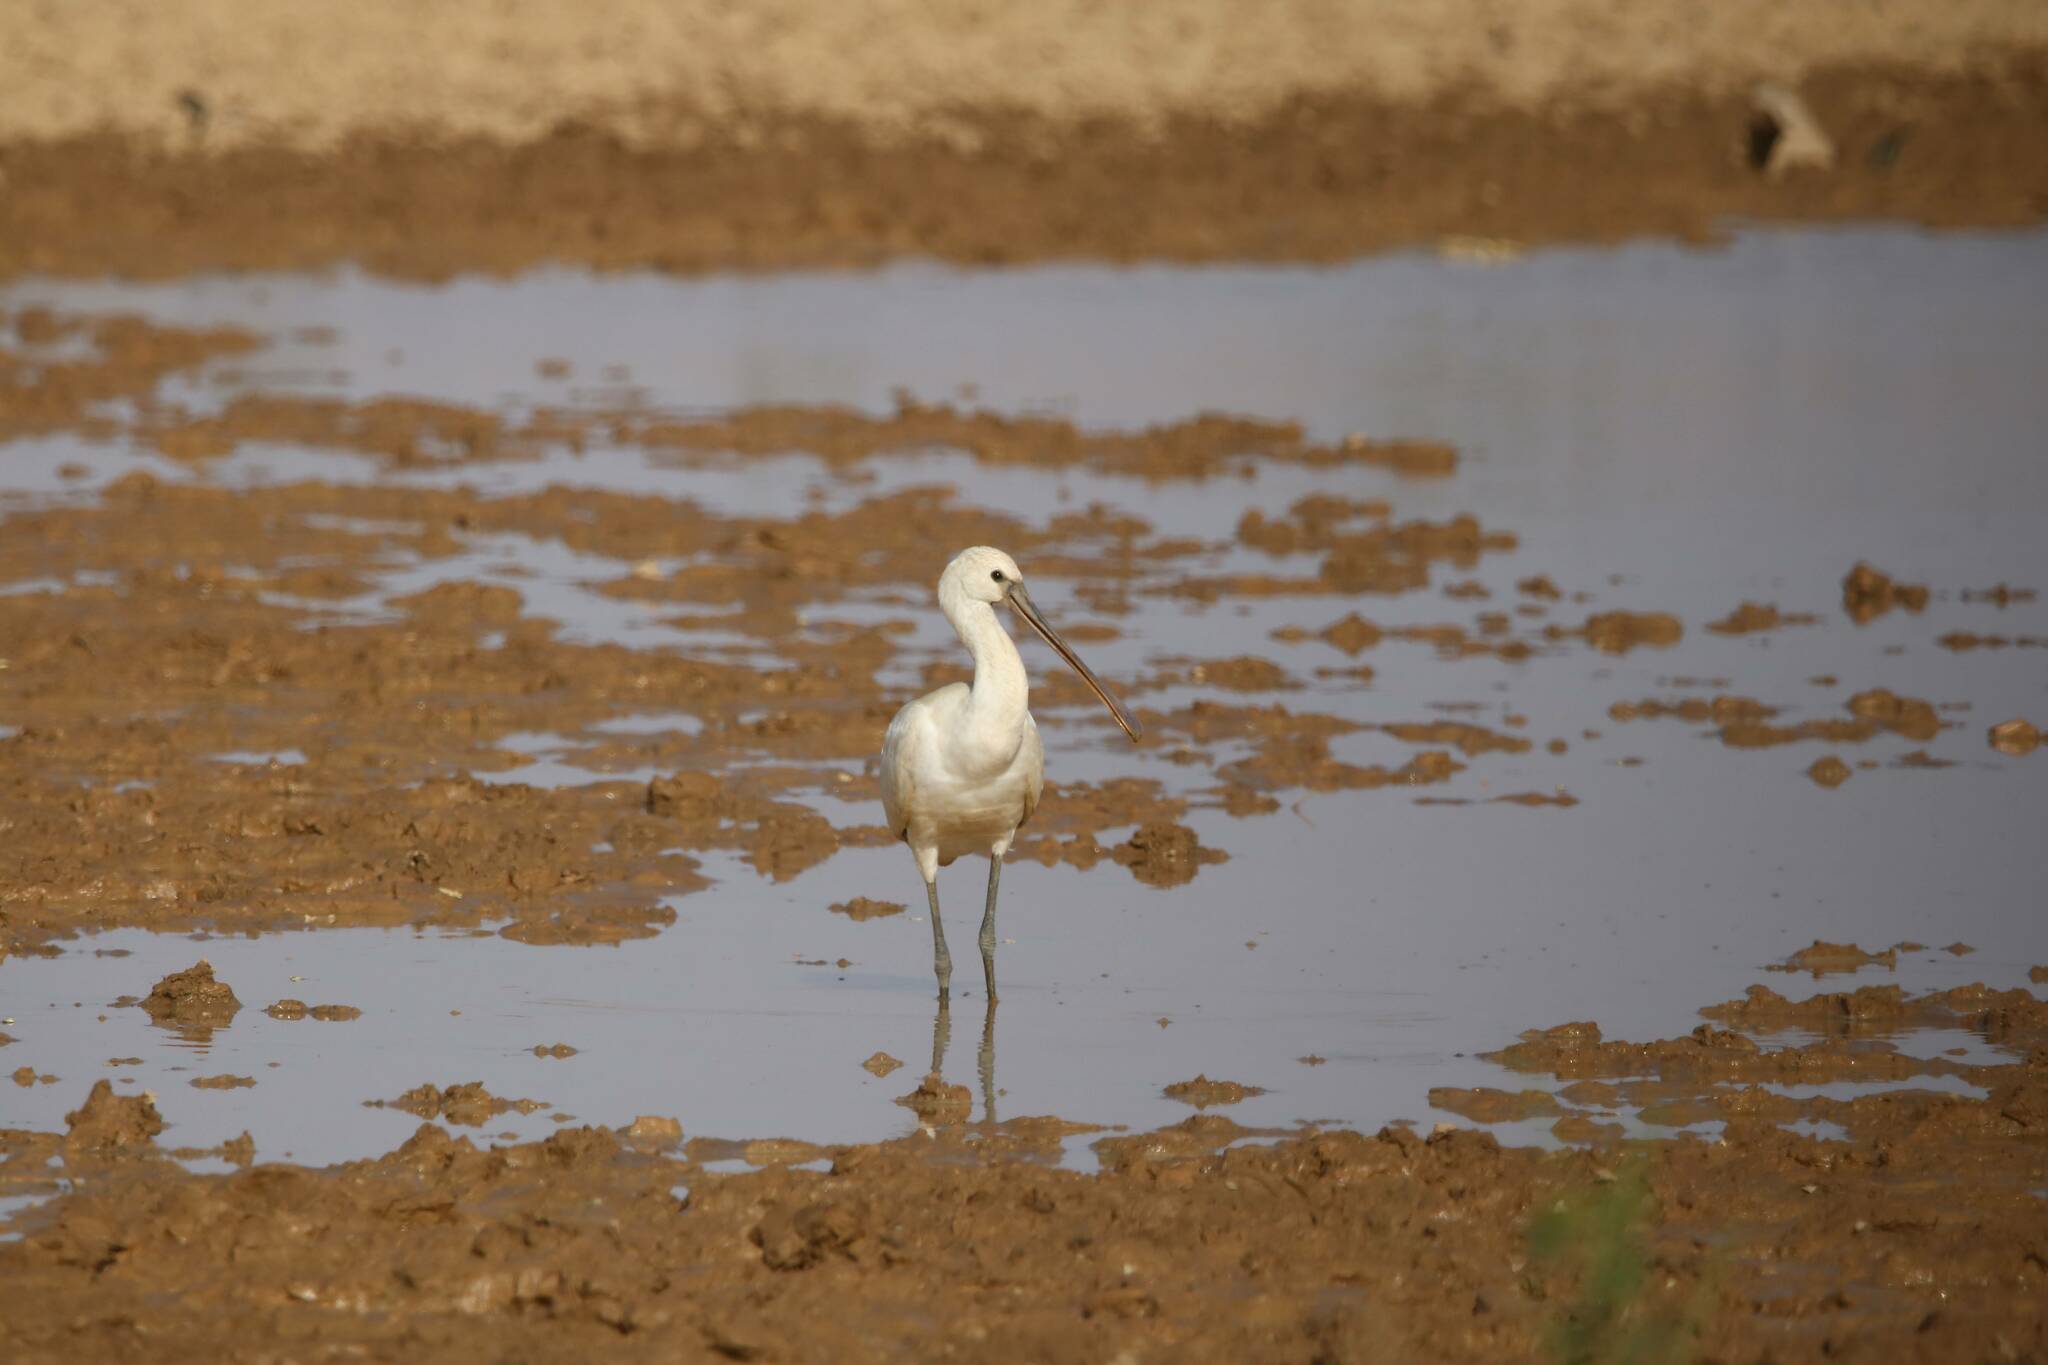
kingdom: Animalia
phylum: Chordata
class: Aves
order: Pelecaniformes
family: Threskiornithidae
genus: Platalea
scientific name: Platalea leucorodia
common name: Eurasian spoonbill
